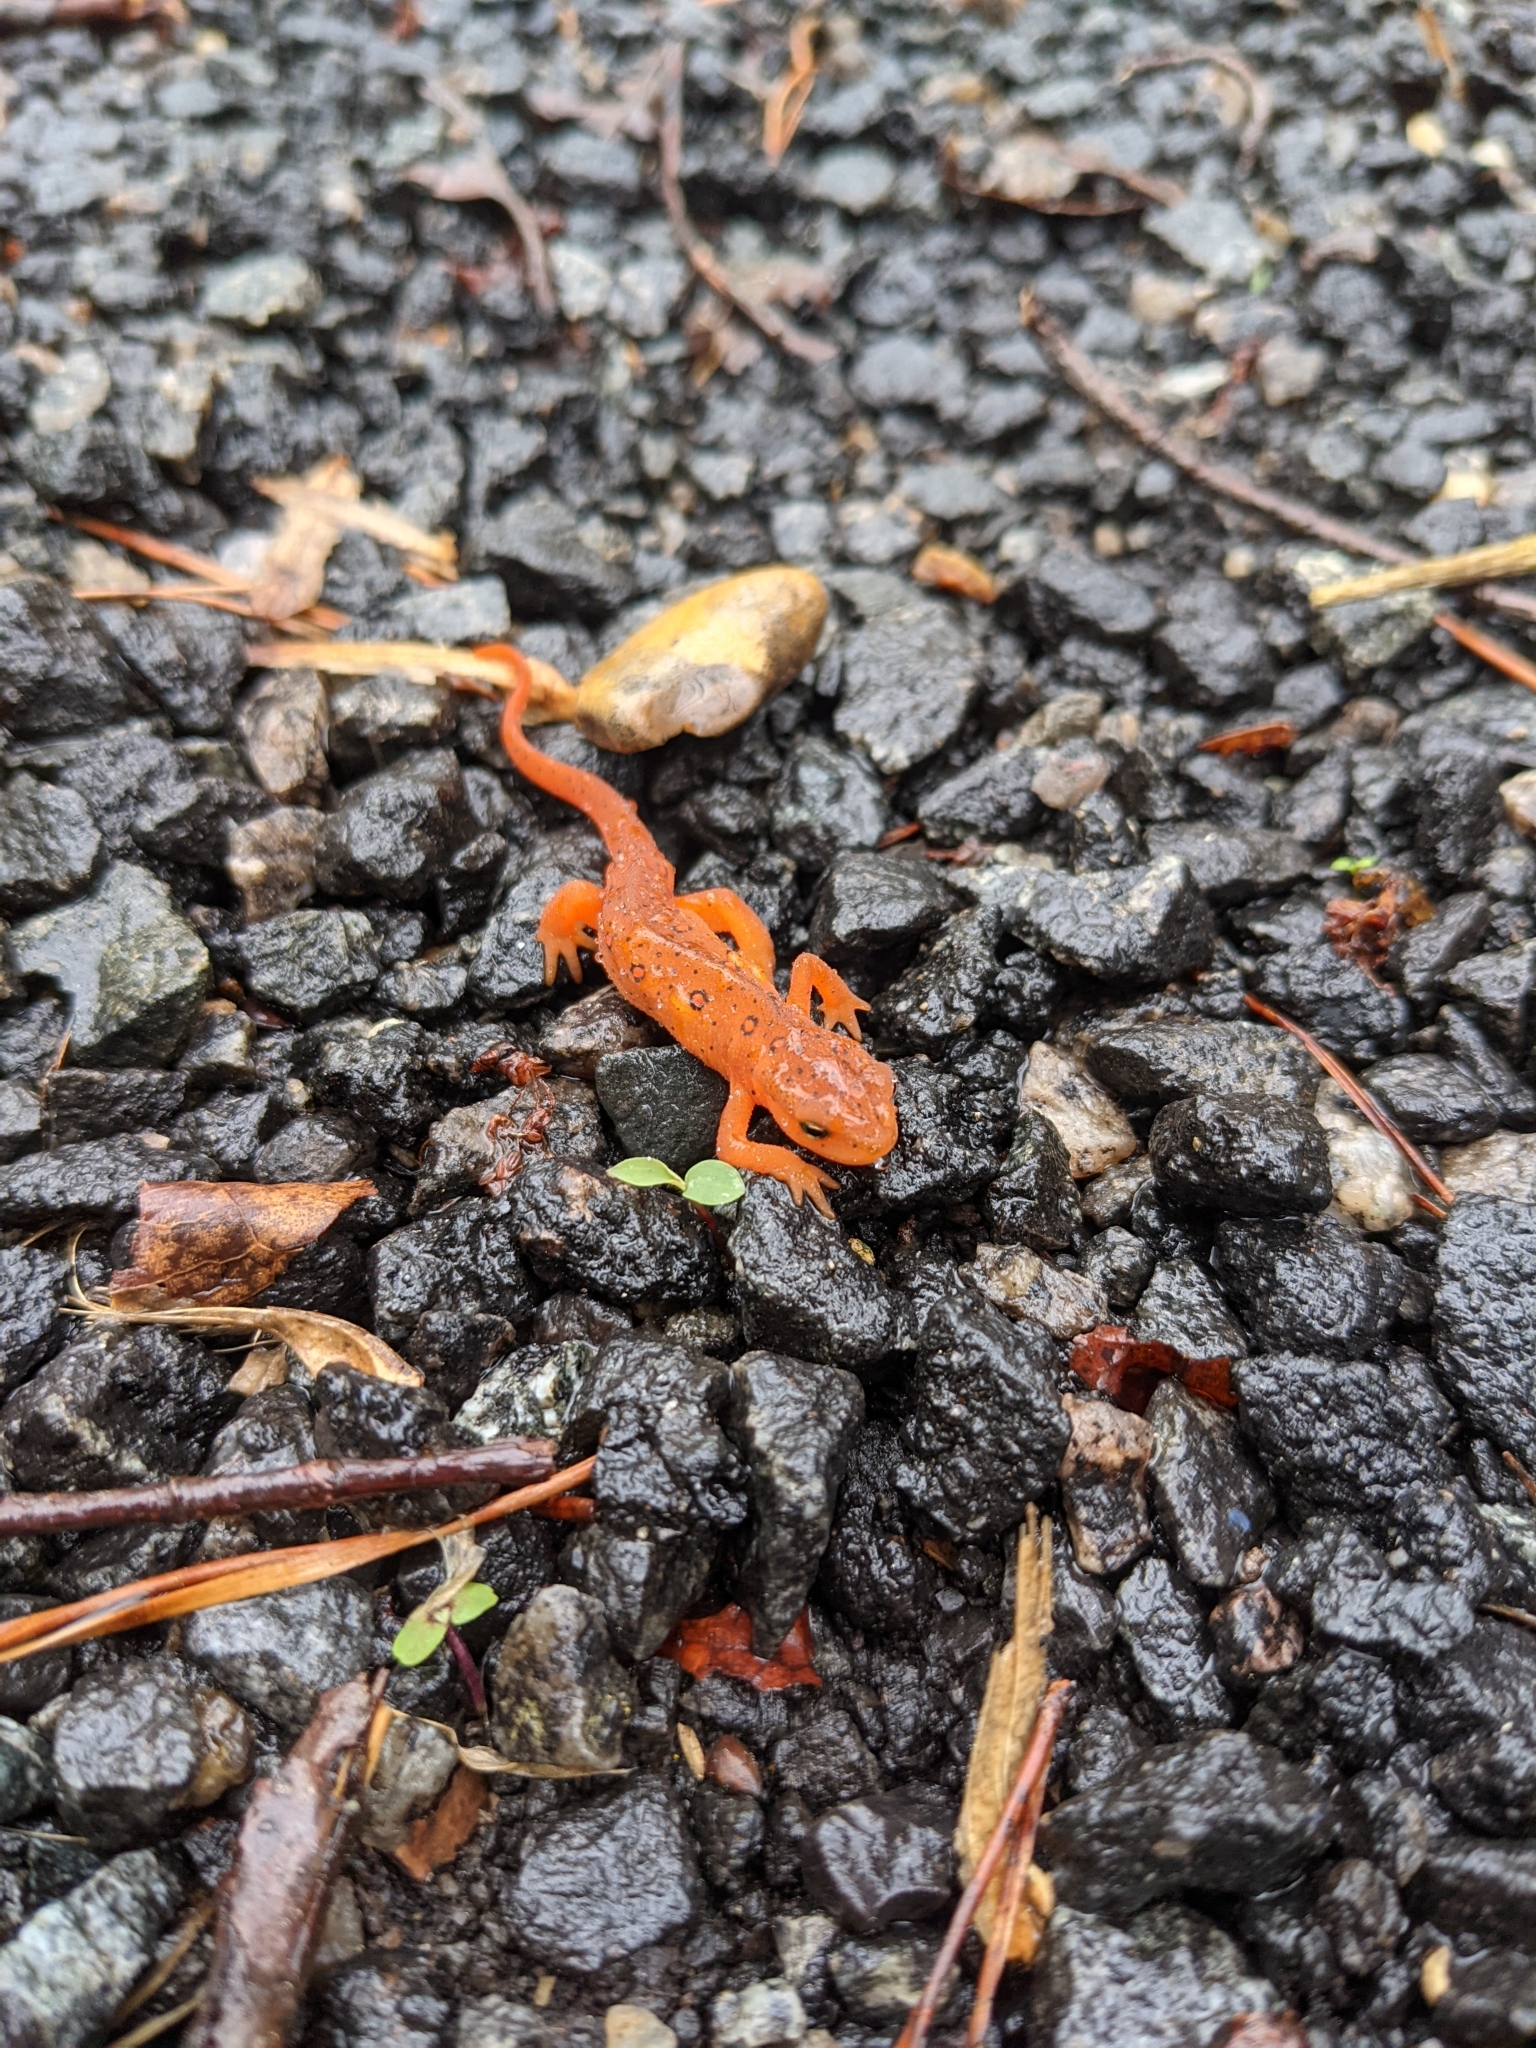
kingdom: Animalia
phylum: Chordata
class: Amphibia
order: Caudata
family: Salamandridae
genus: Notophthalmus
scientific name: Notophthalmus viridescens
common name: Eastern newt
